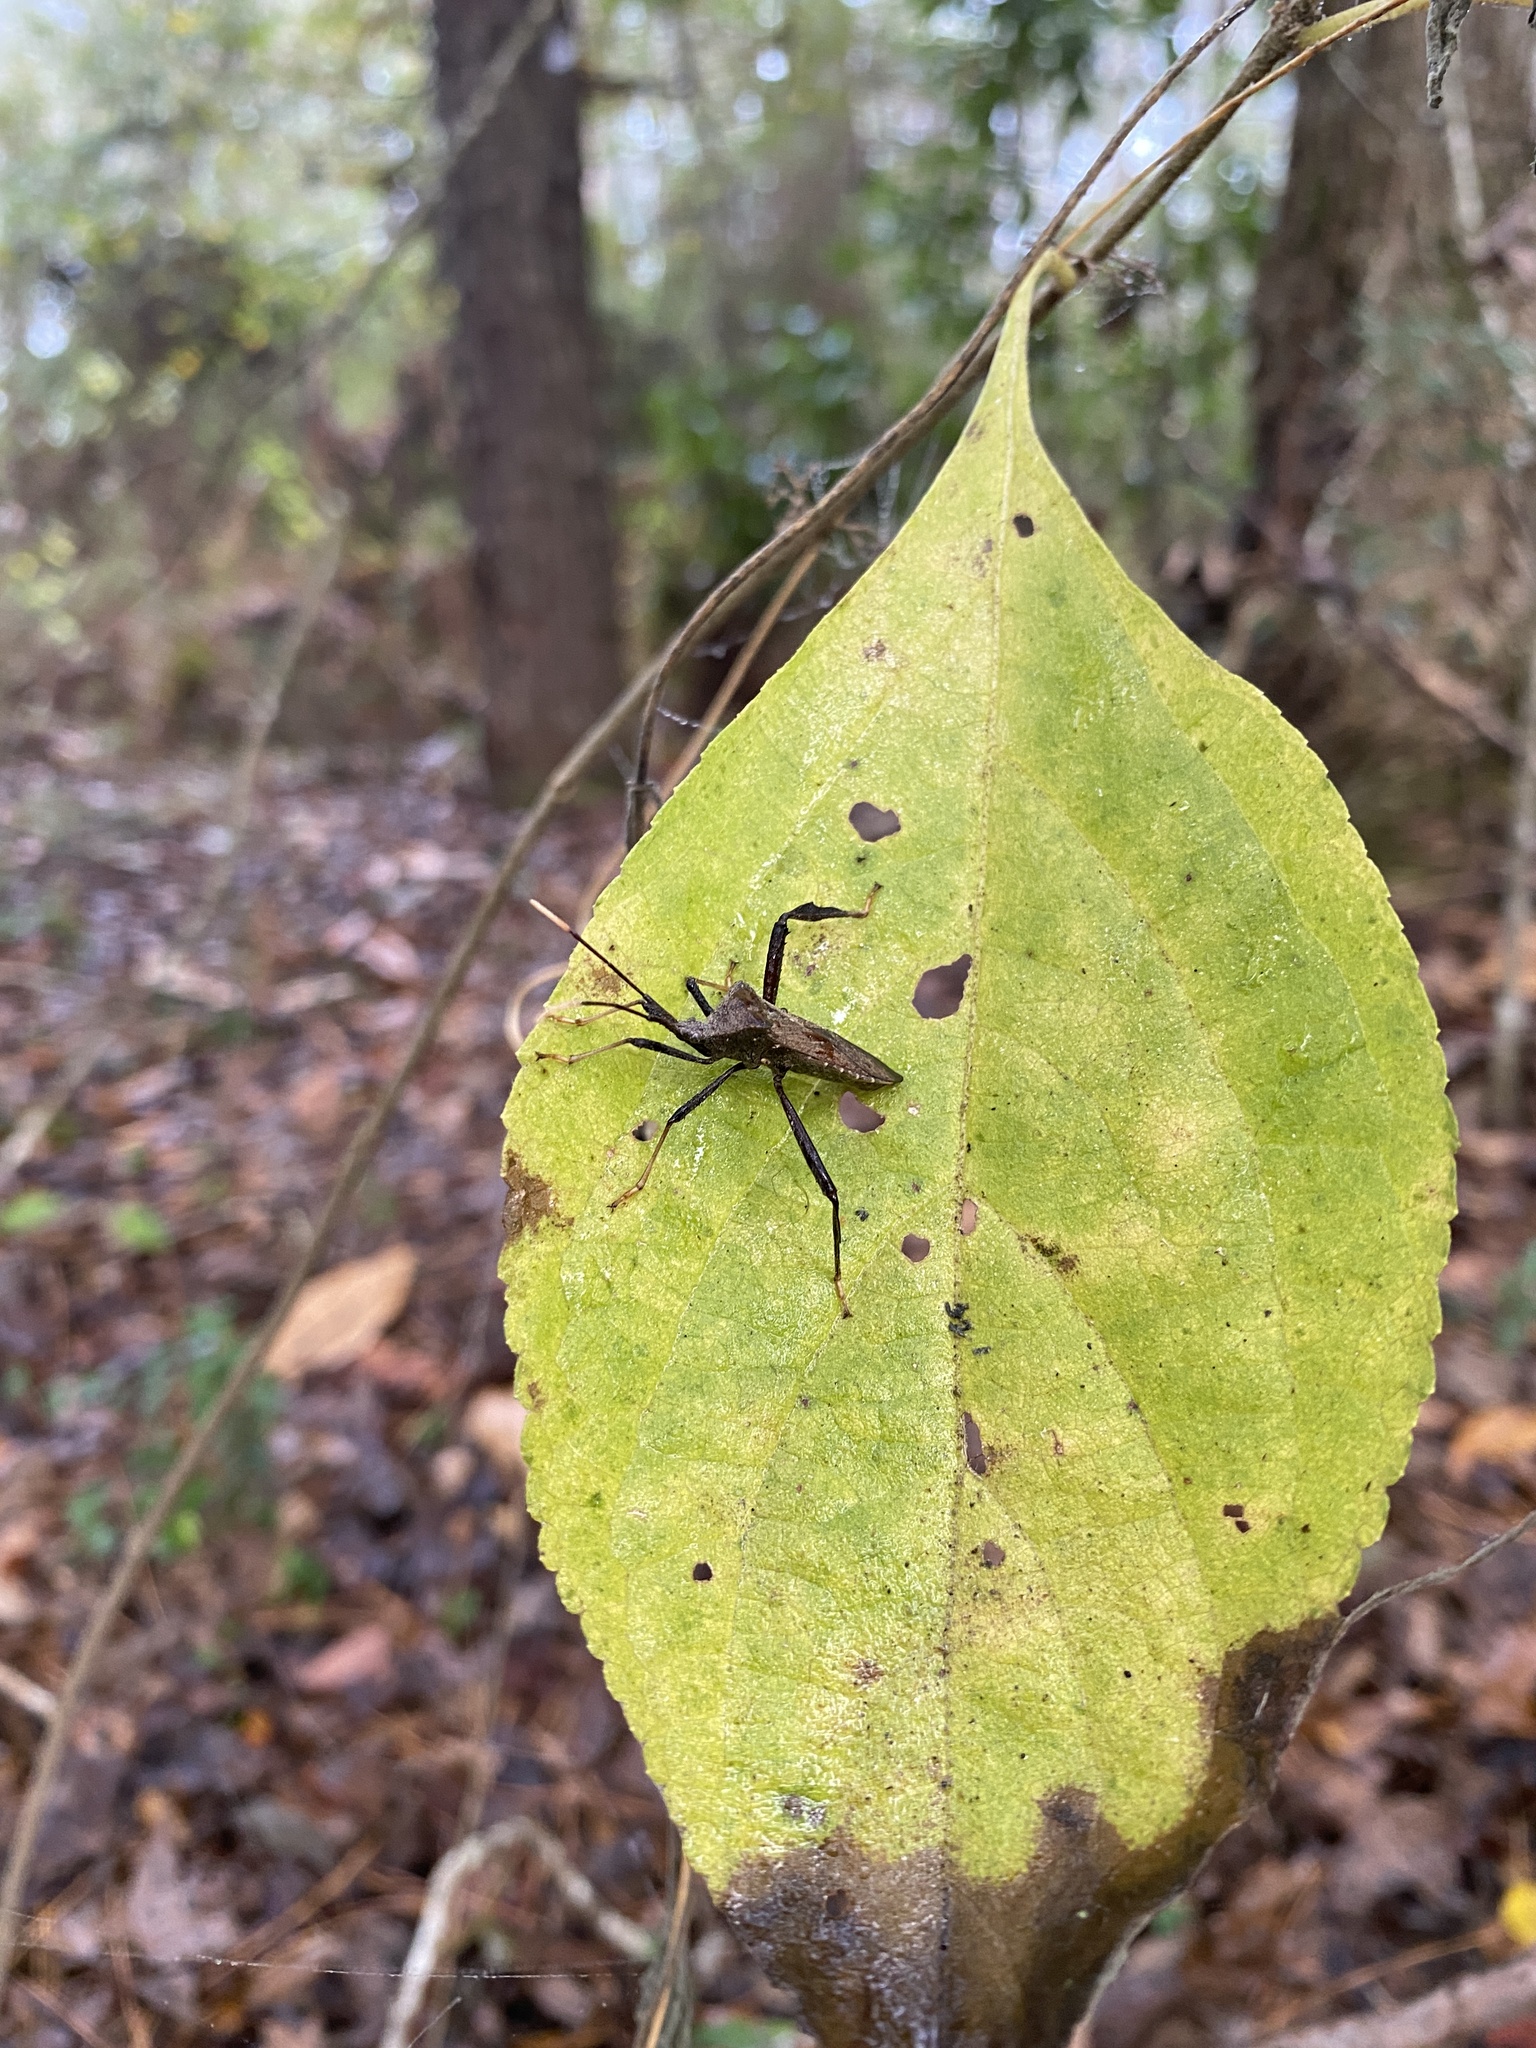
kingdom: Animalia
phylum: Arthropoda
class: Insecta
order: Hemiptera
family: Coreidae
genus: Acanthocephala
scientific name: Acanthocephala terminalis
